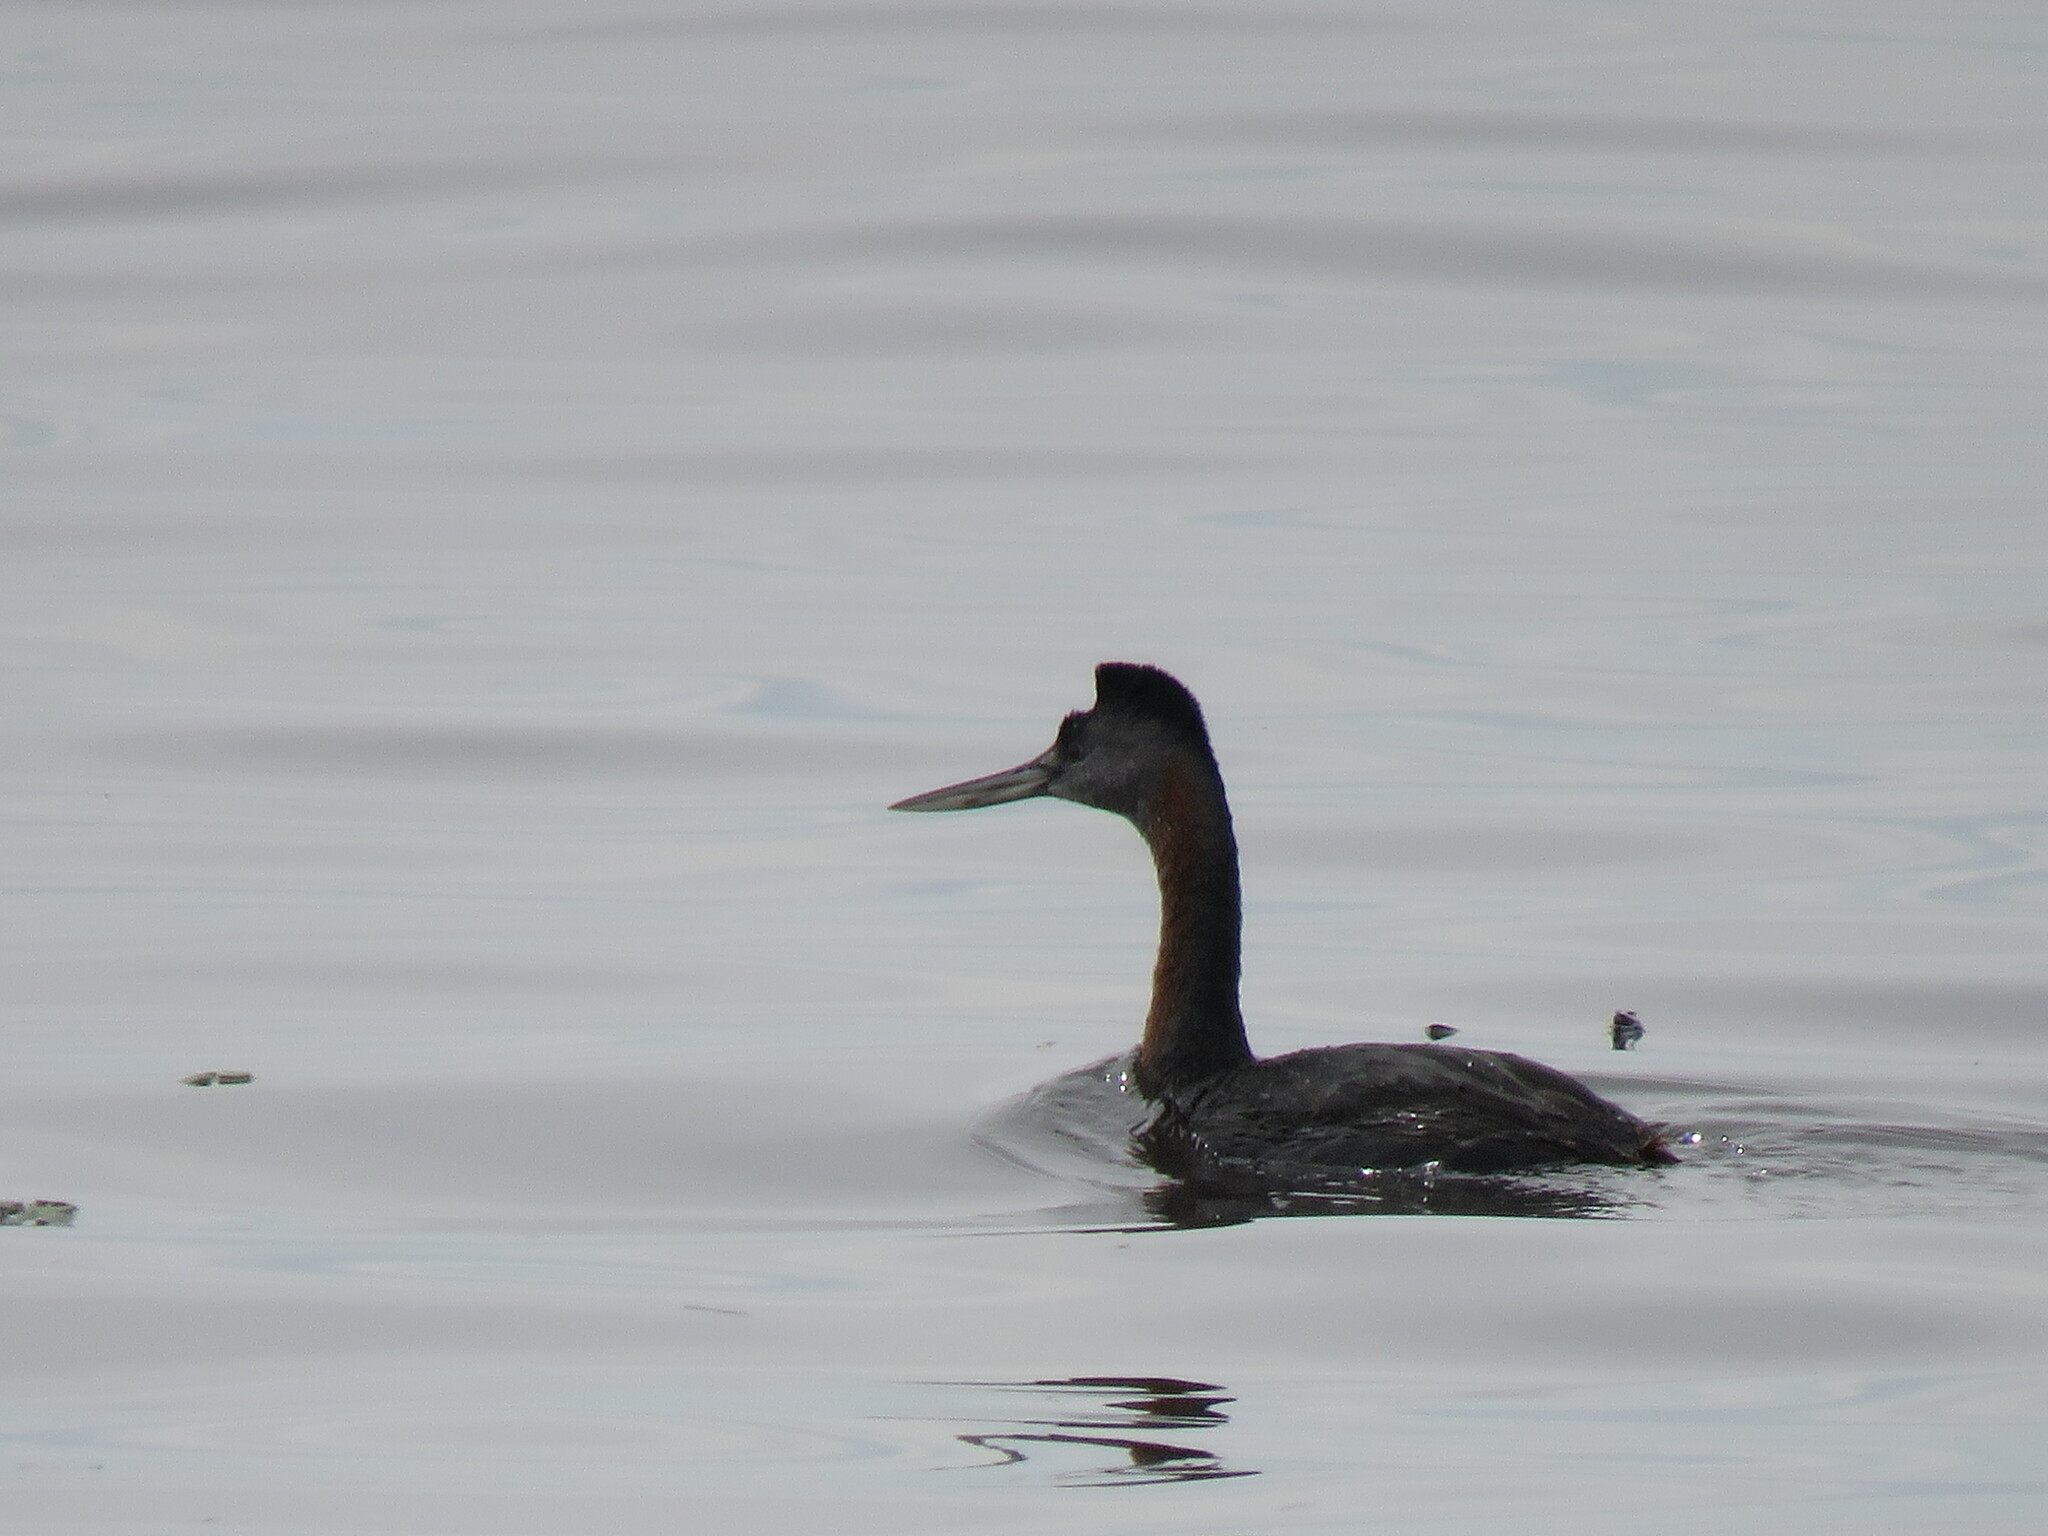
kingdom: Animalia
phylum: Chordata
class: Aves
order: Podicipediformes
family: Podicipedidae
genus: Podiceps
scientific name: Podiceps major
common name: Great grebe
